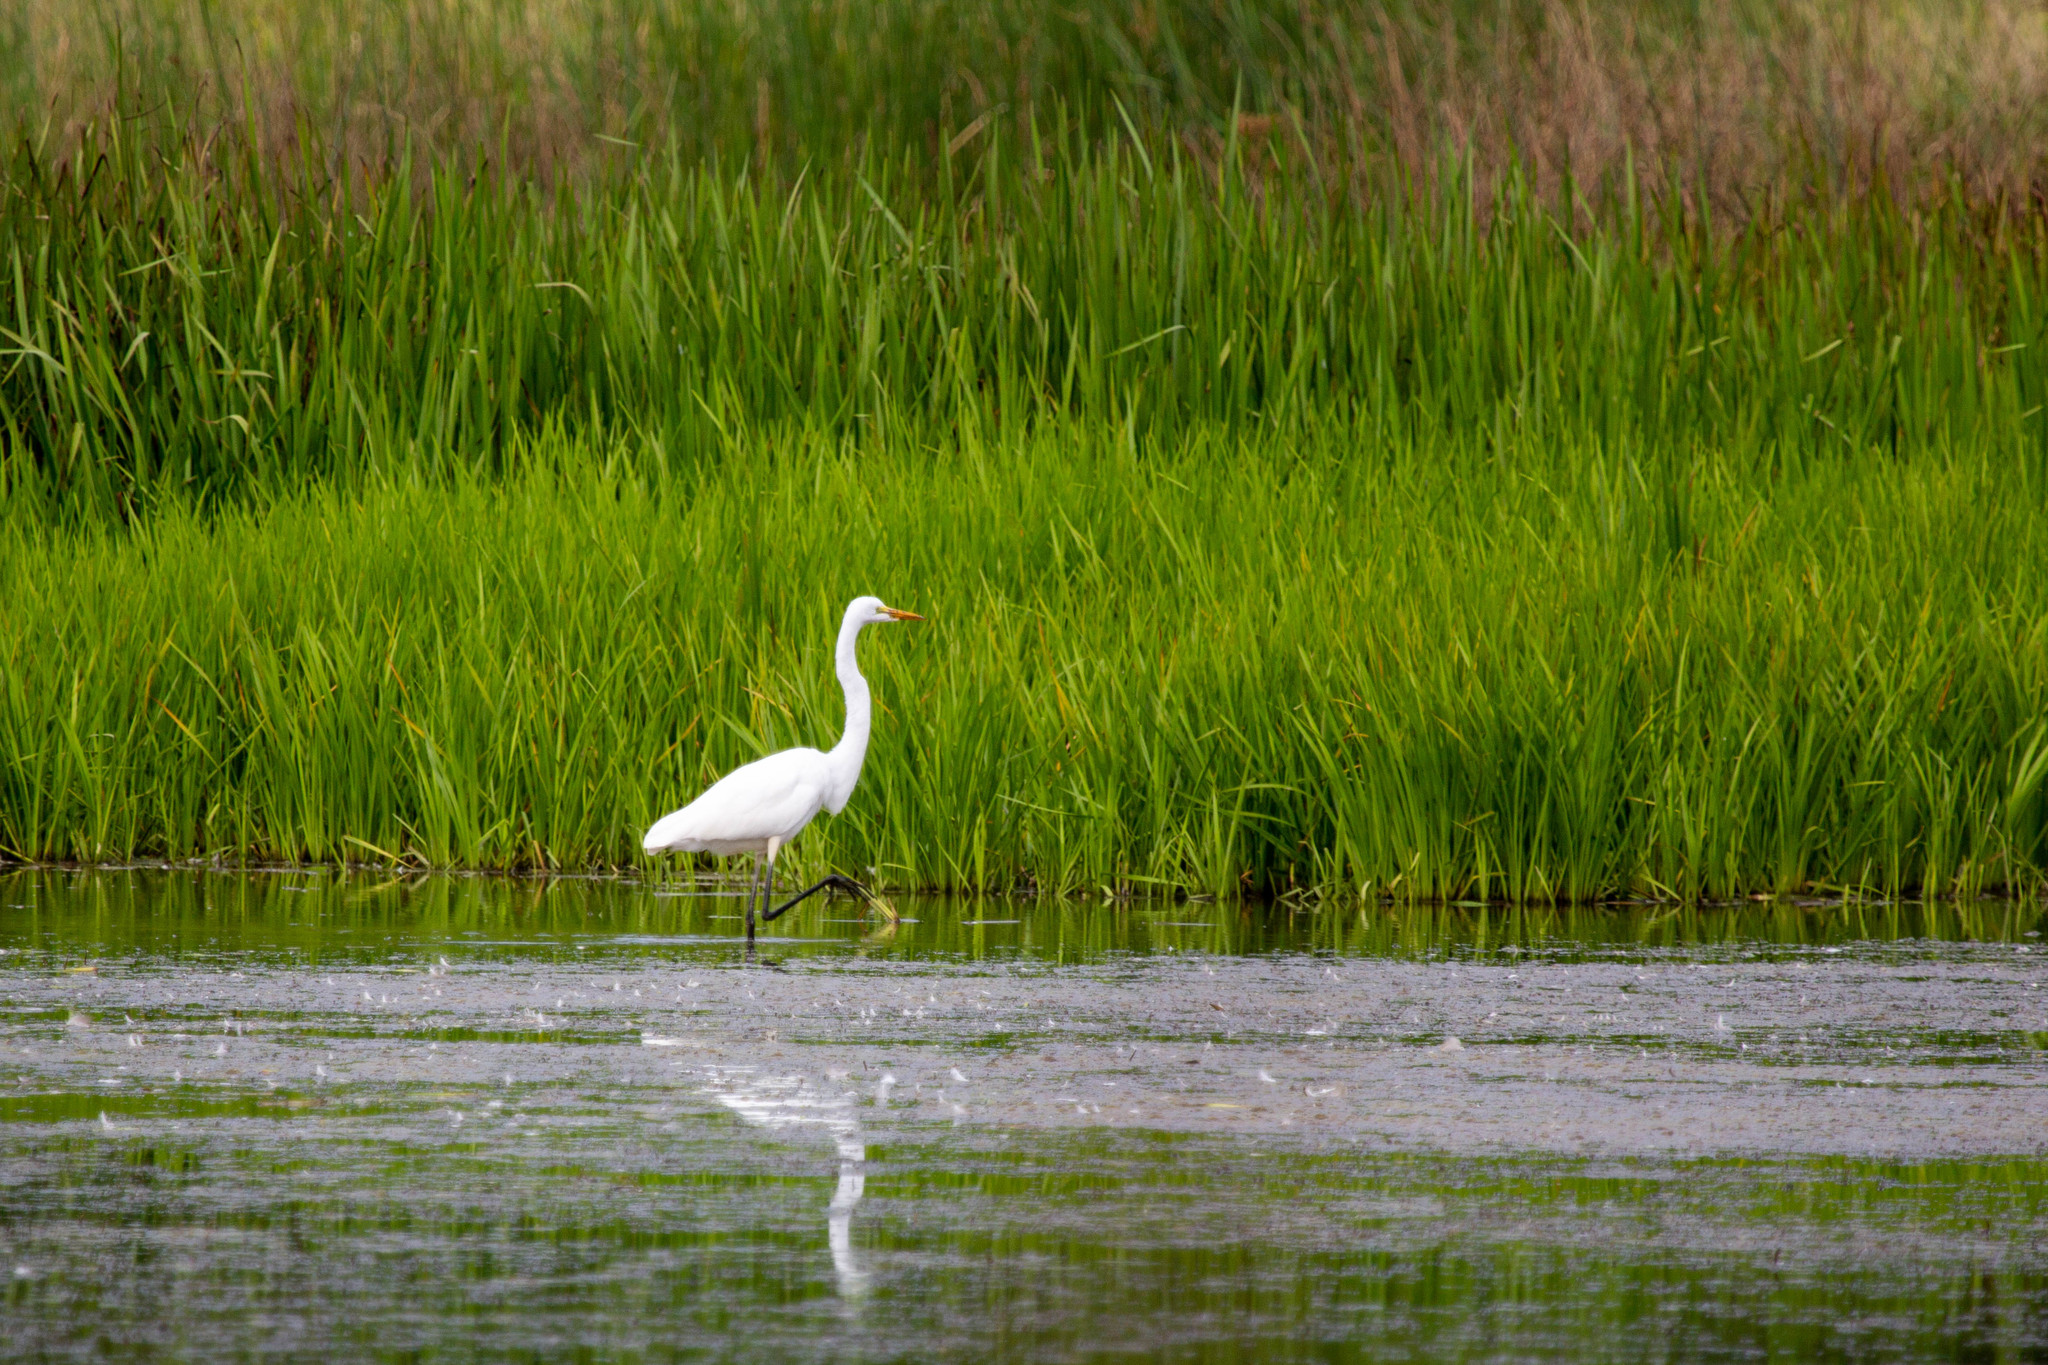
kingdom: Animalia
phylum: Chordata
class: Aves
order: Pelecaniformes
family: Ardeidae
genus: Ardea
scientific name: Ardea alba
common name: Great egret
